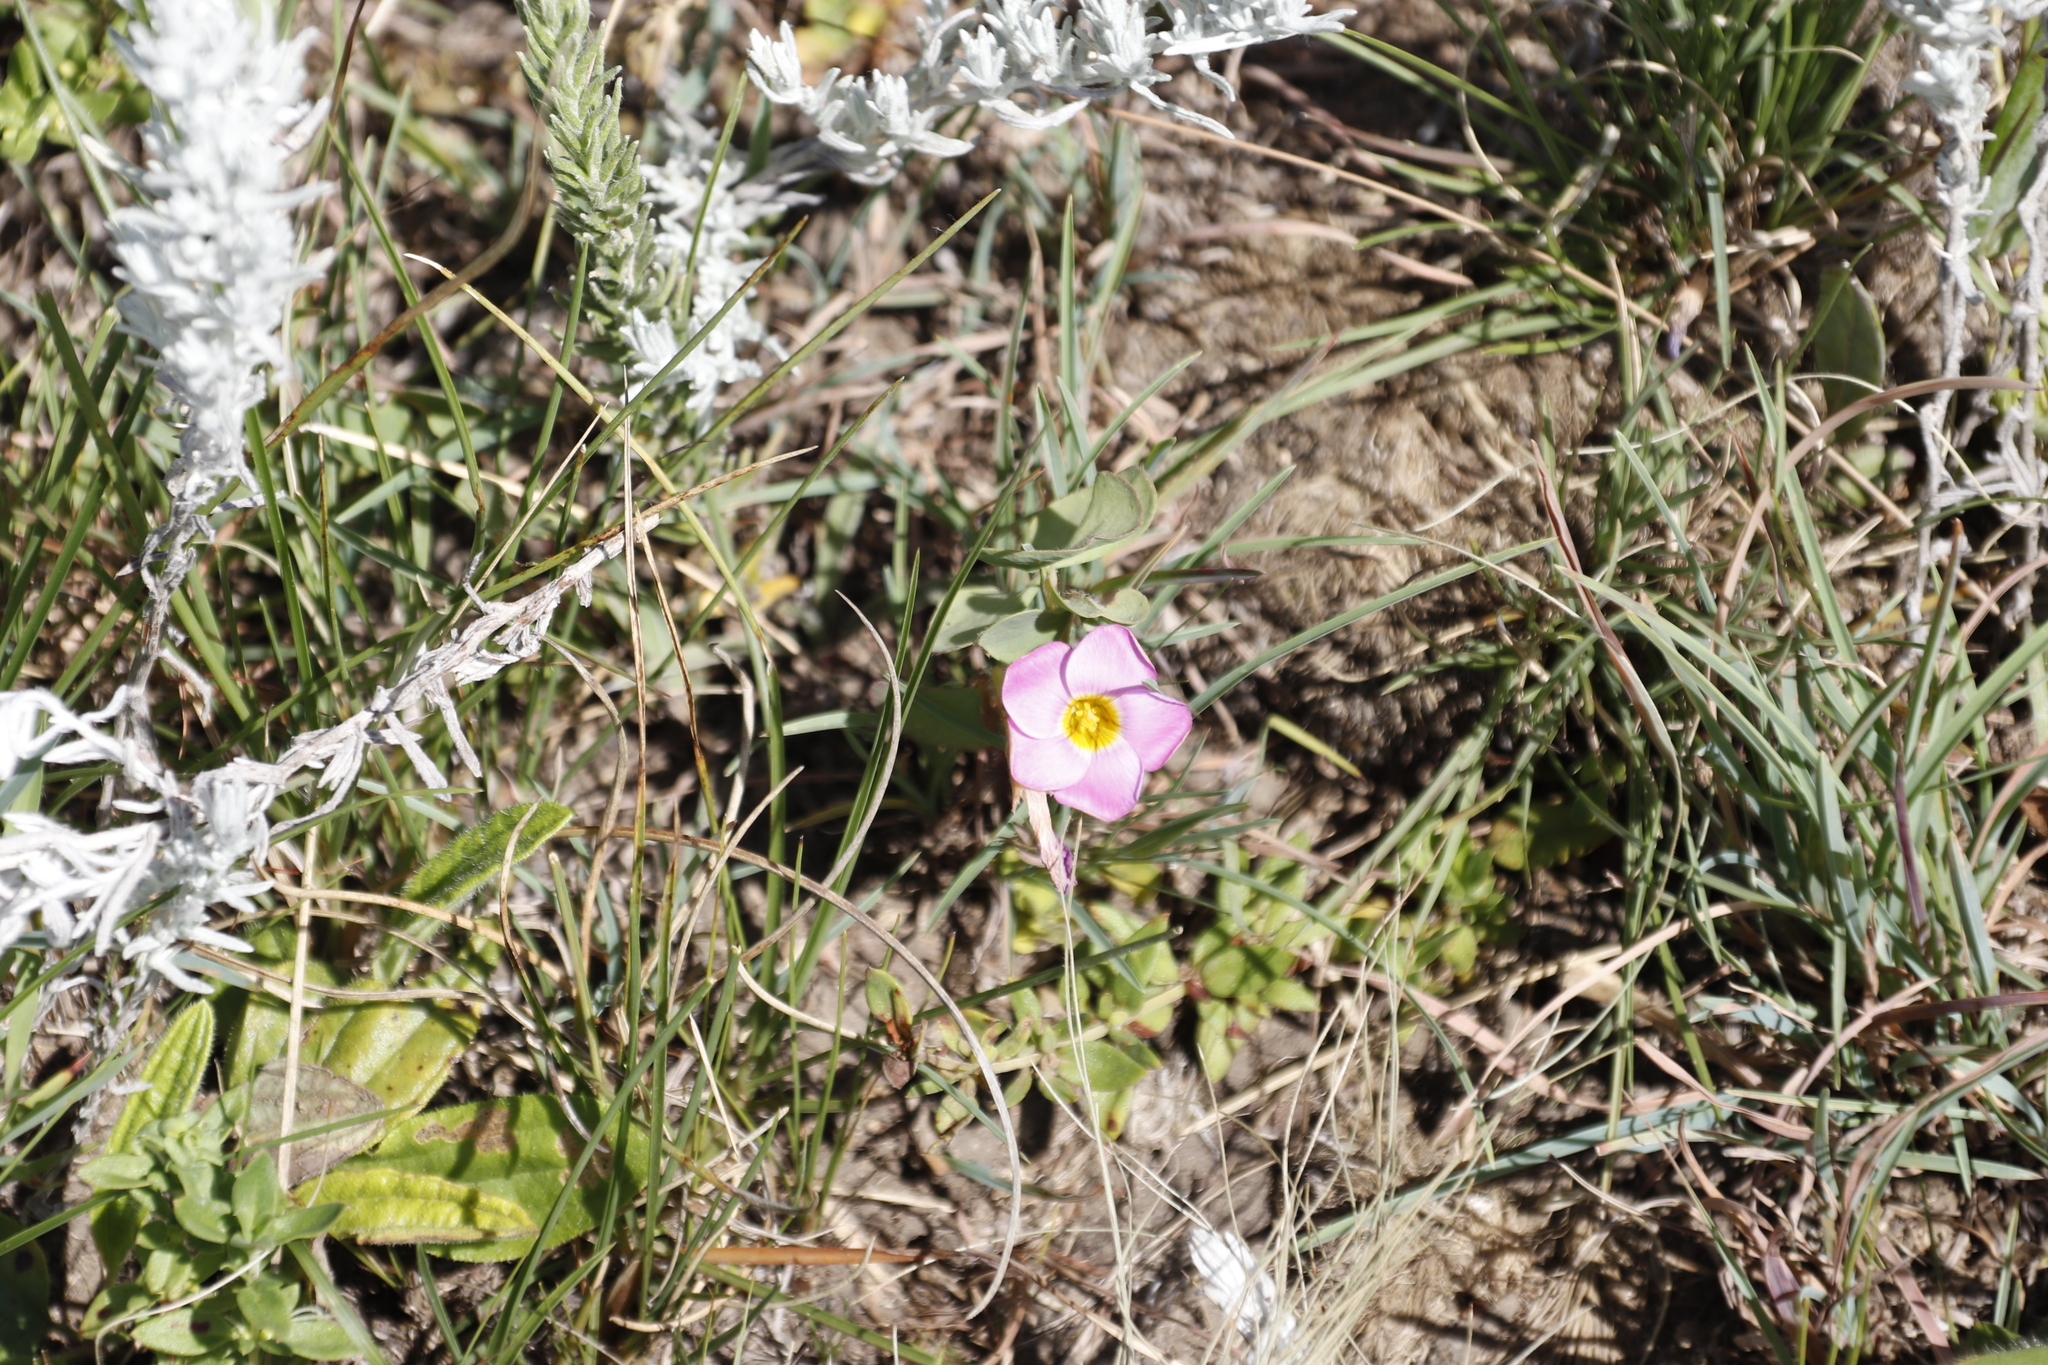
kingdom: Plantae
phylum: Tracheophyta
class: Magnoliopsida
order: Oxalidales
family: Oxalidaceae
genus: Oxalis
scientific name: Oxalis obliquifolia
